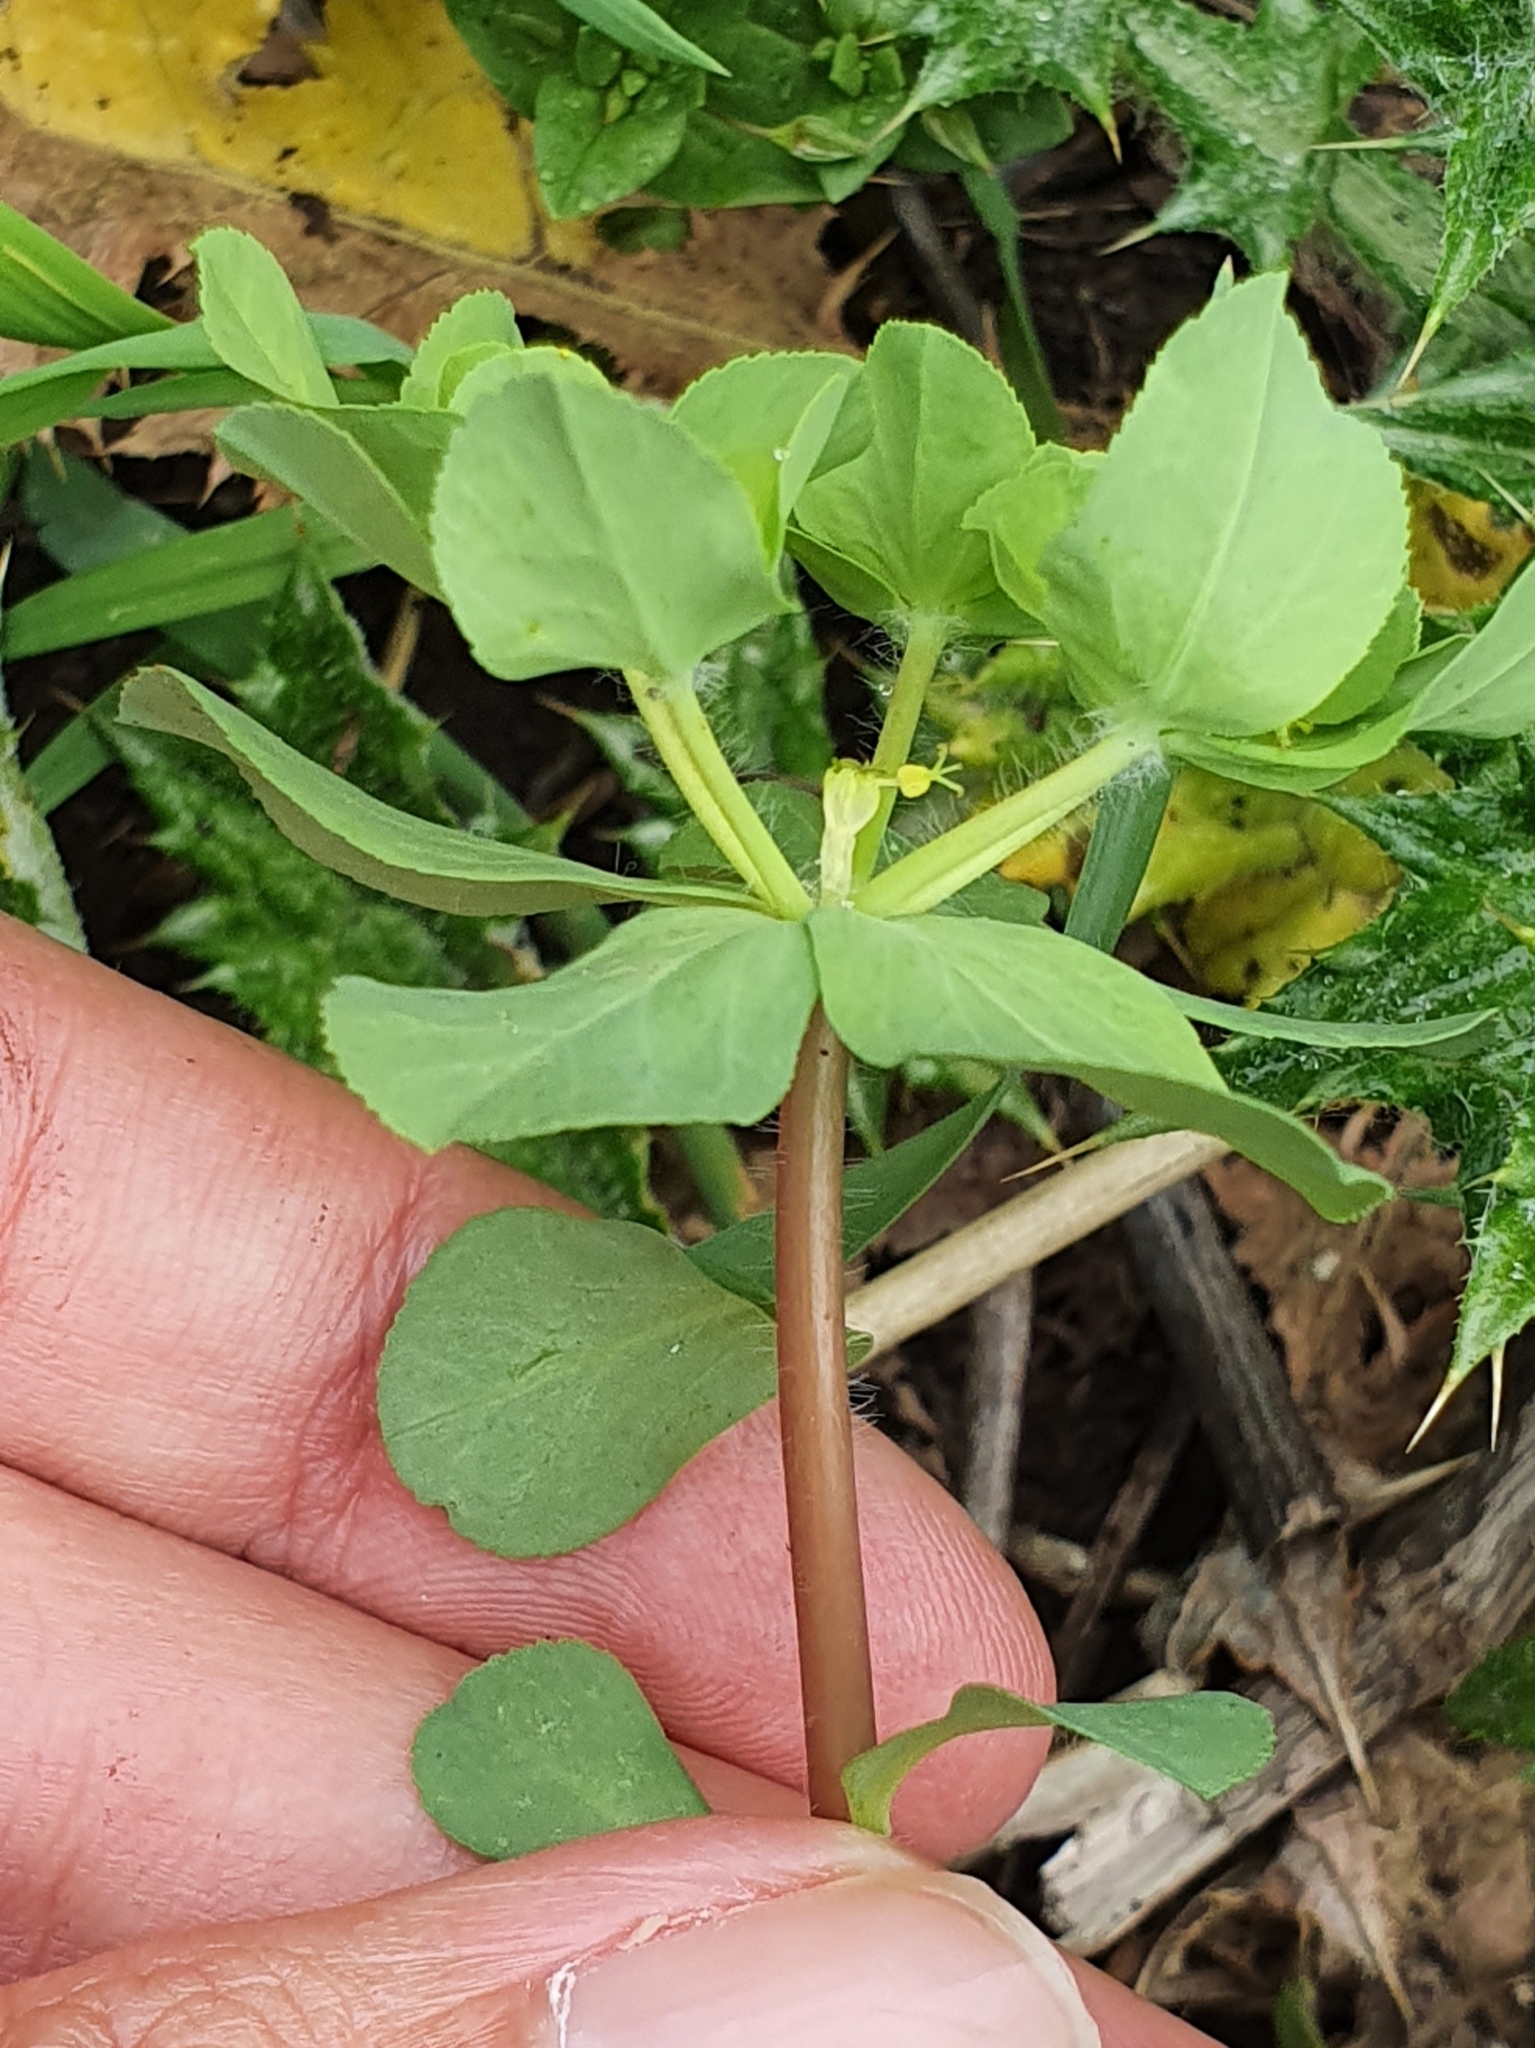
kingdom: Plantae
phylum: Tracheophyta
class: Magnoliopsida
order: Malpighiales
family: Euphorbiaceae
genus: Euphorbia
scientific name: Euphorbia helioscopia
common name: Sun spurge
